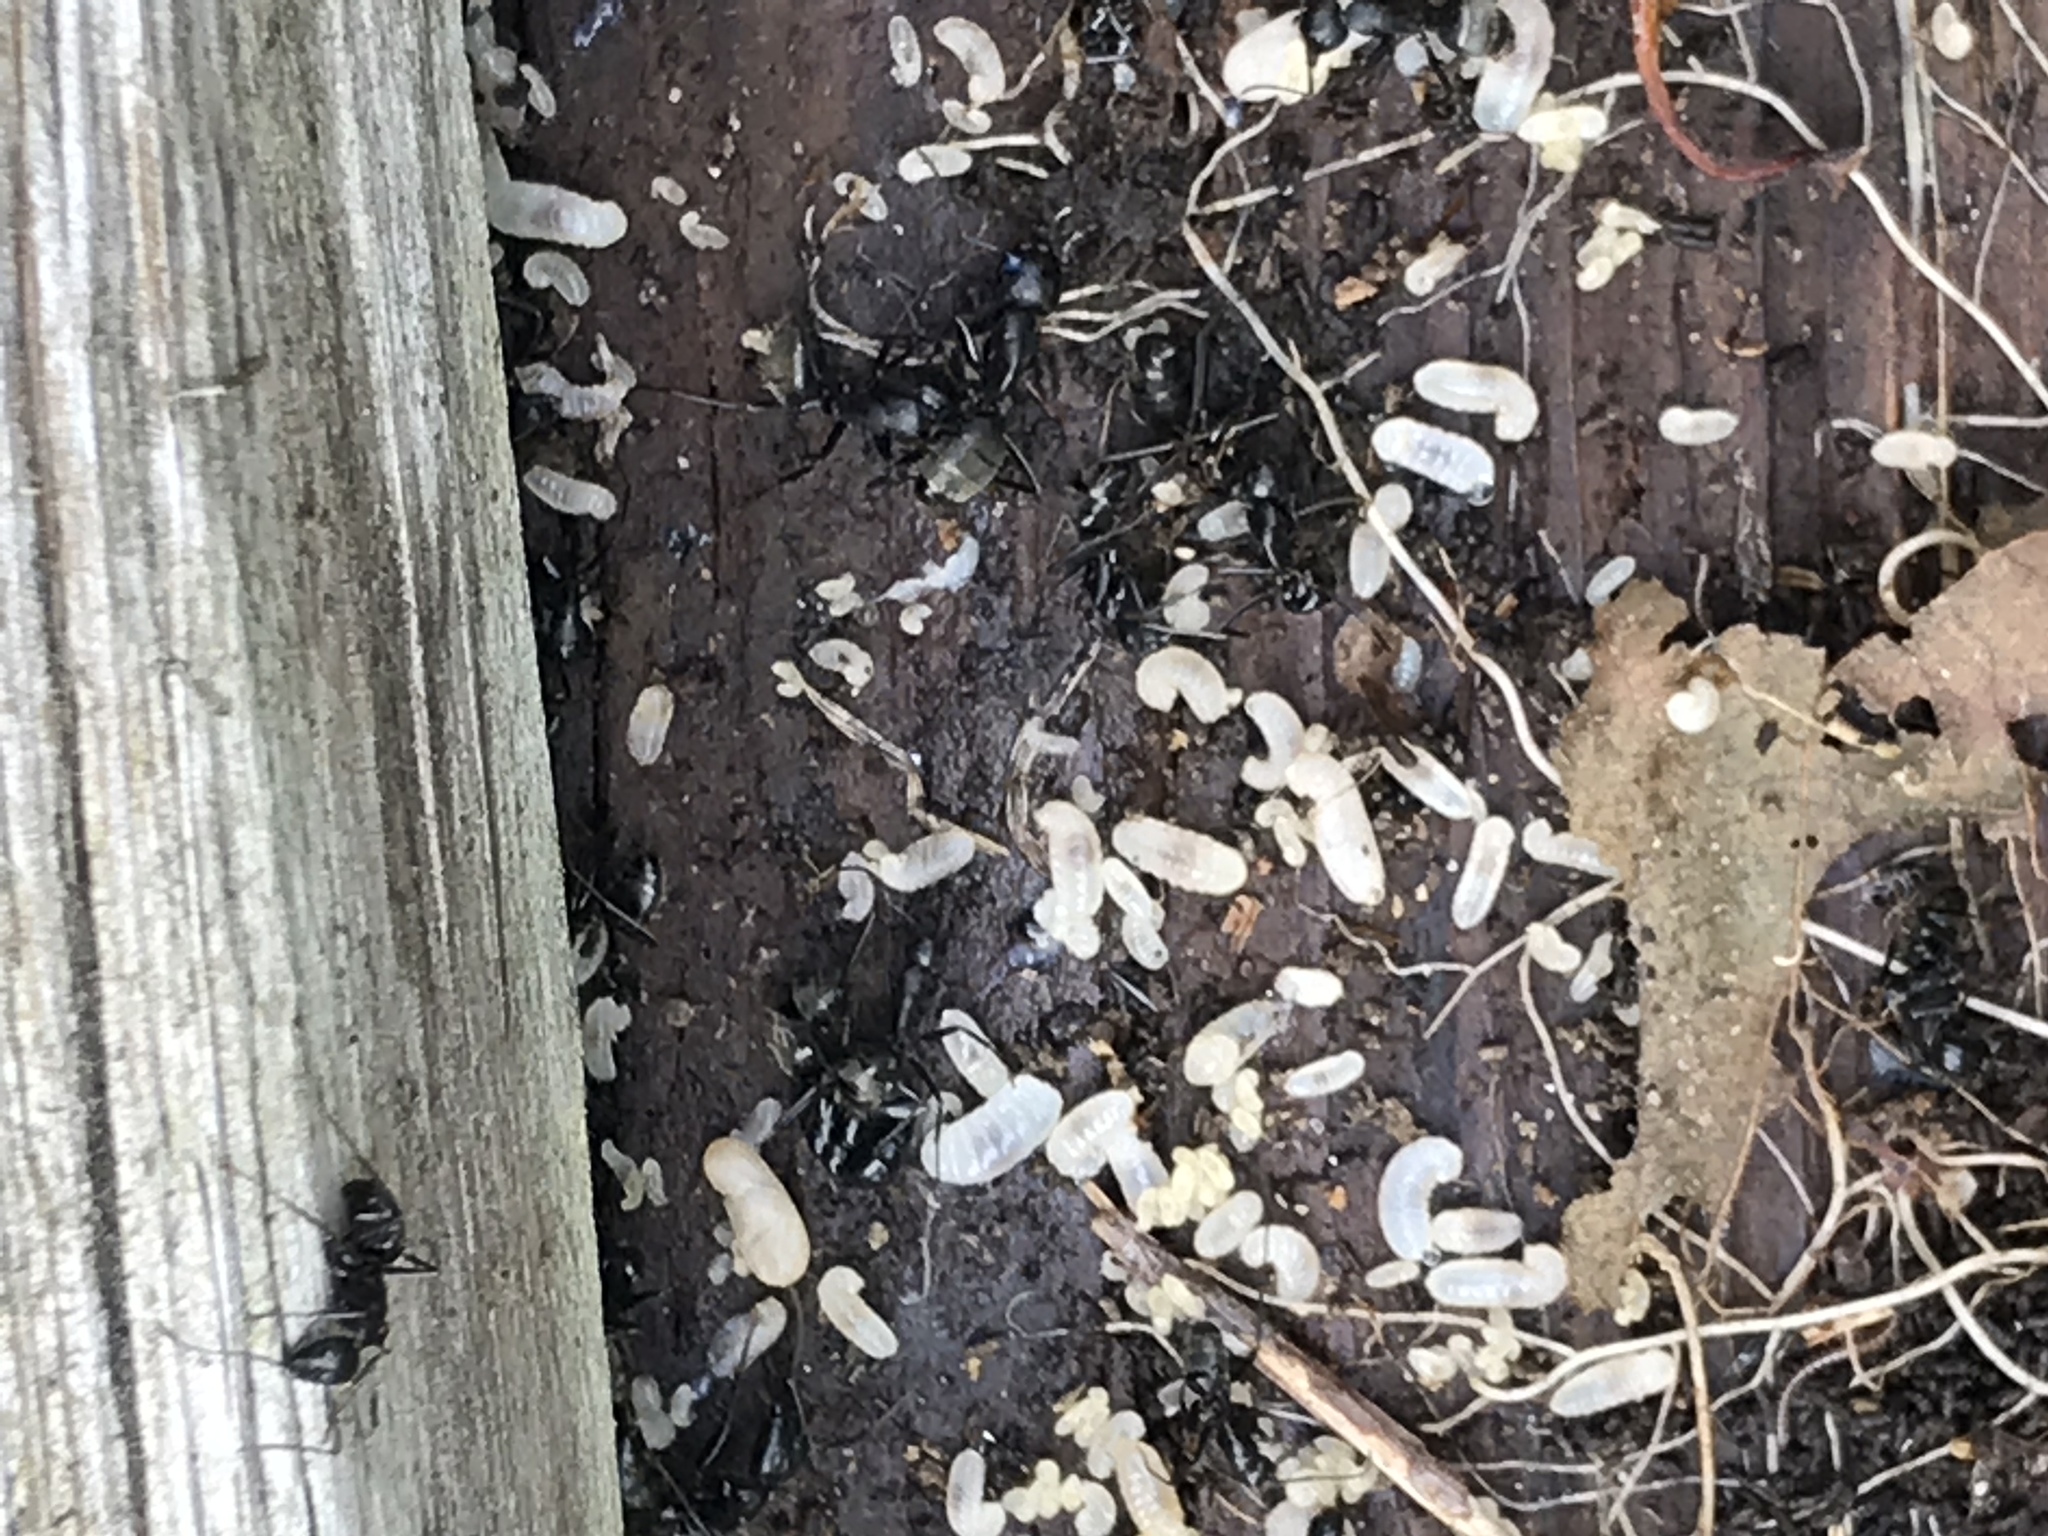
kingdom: Animalia
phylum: Arthropoda
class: Insecta
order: Hymenoptera
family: Formicidae
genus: Camponotus
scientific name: Camponotus pennsylvanicus
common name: Black carpenter ant
